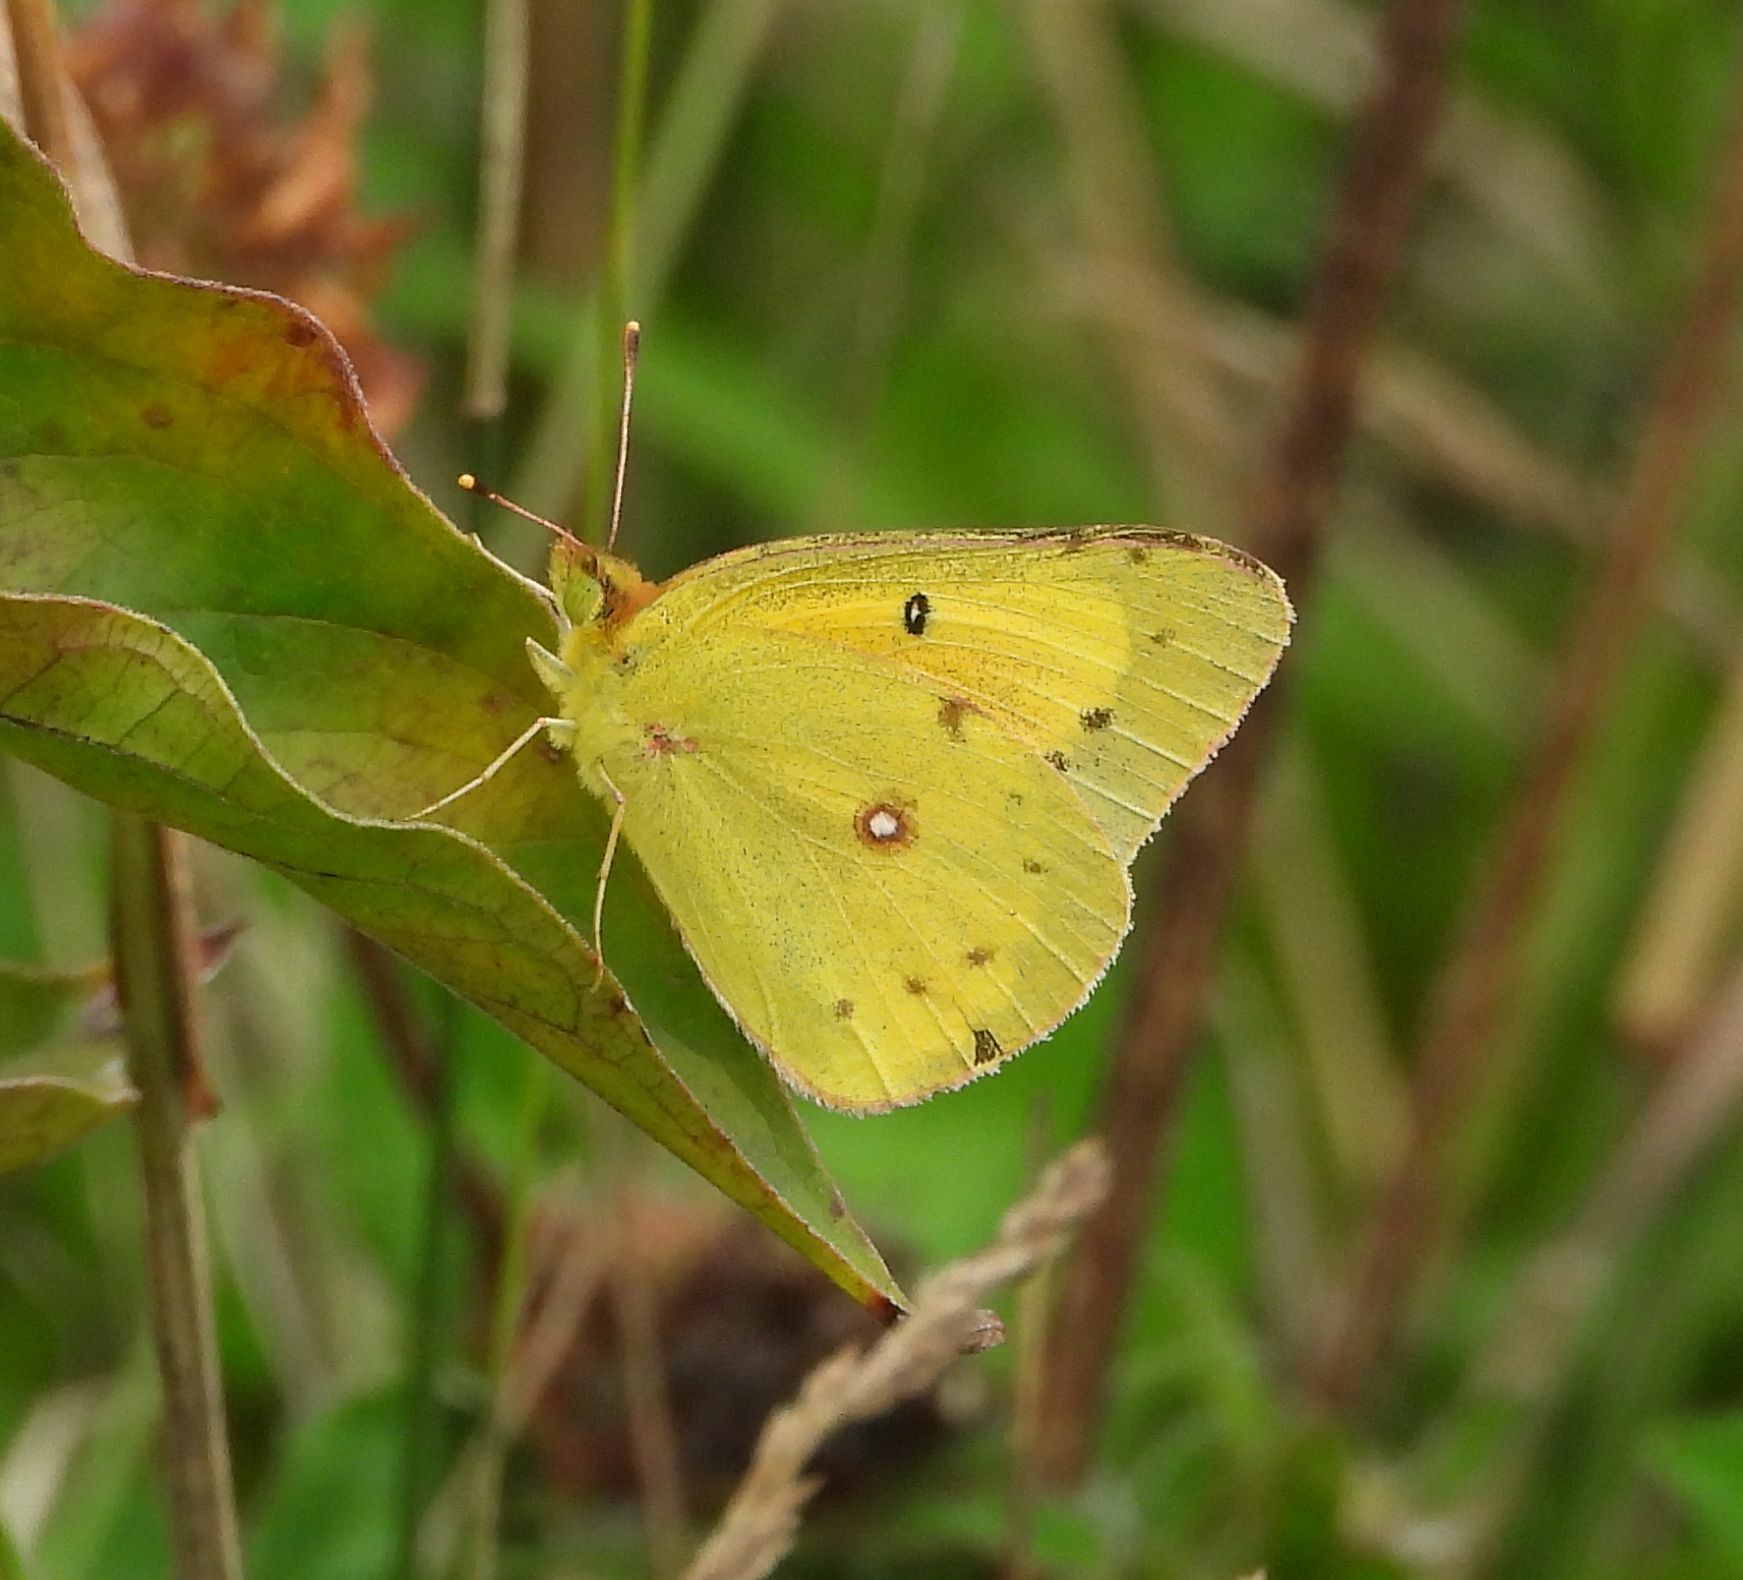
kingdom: Animalia
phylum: Arthropoda
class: Insecta
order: Lepidoptera
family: Pieridae
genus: Colias
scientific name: Colias eurytheme
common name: Alfalfa butterfly
